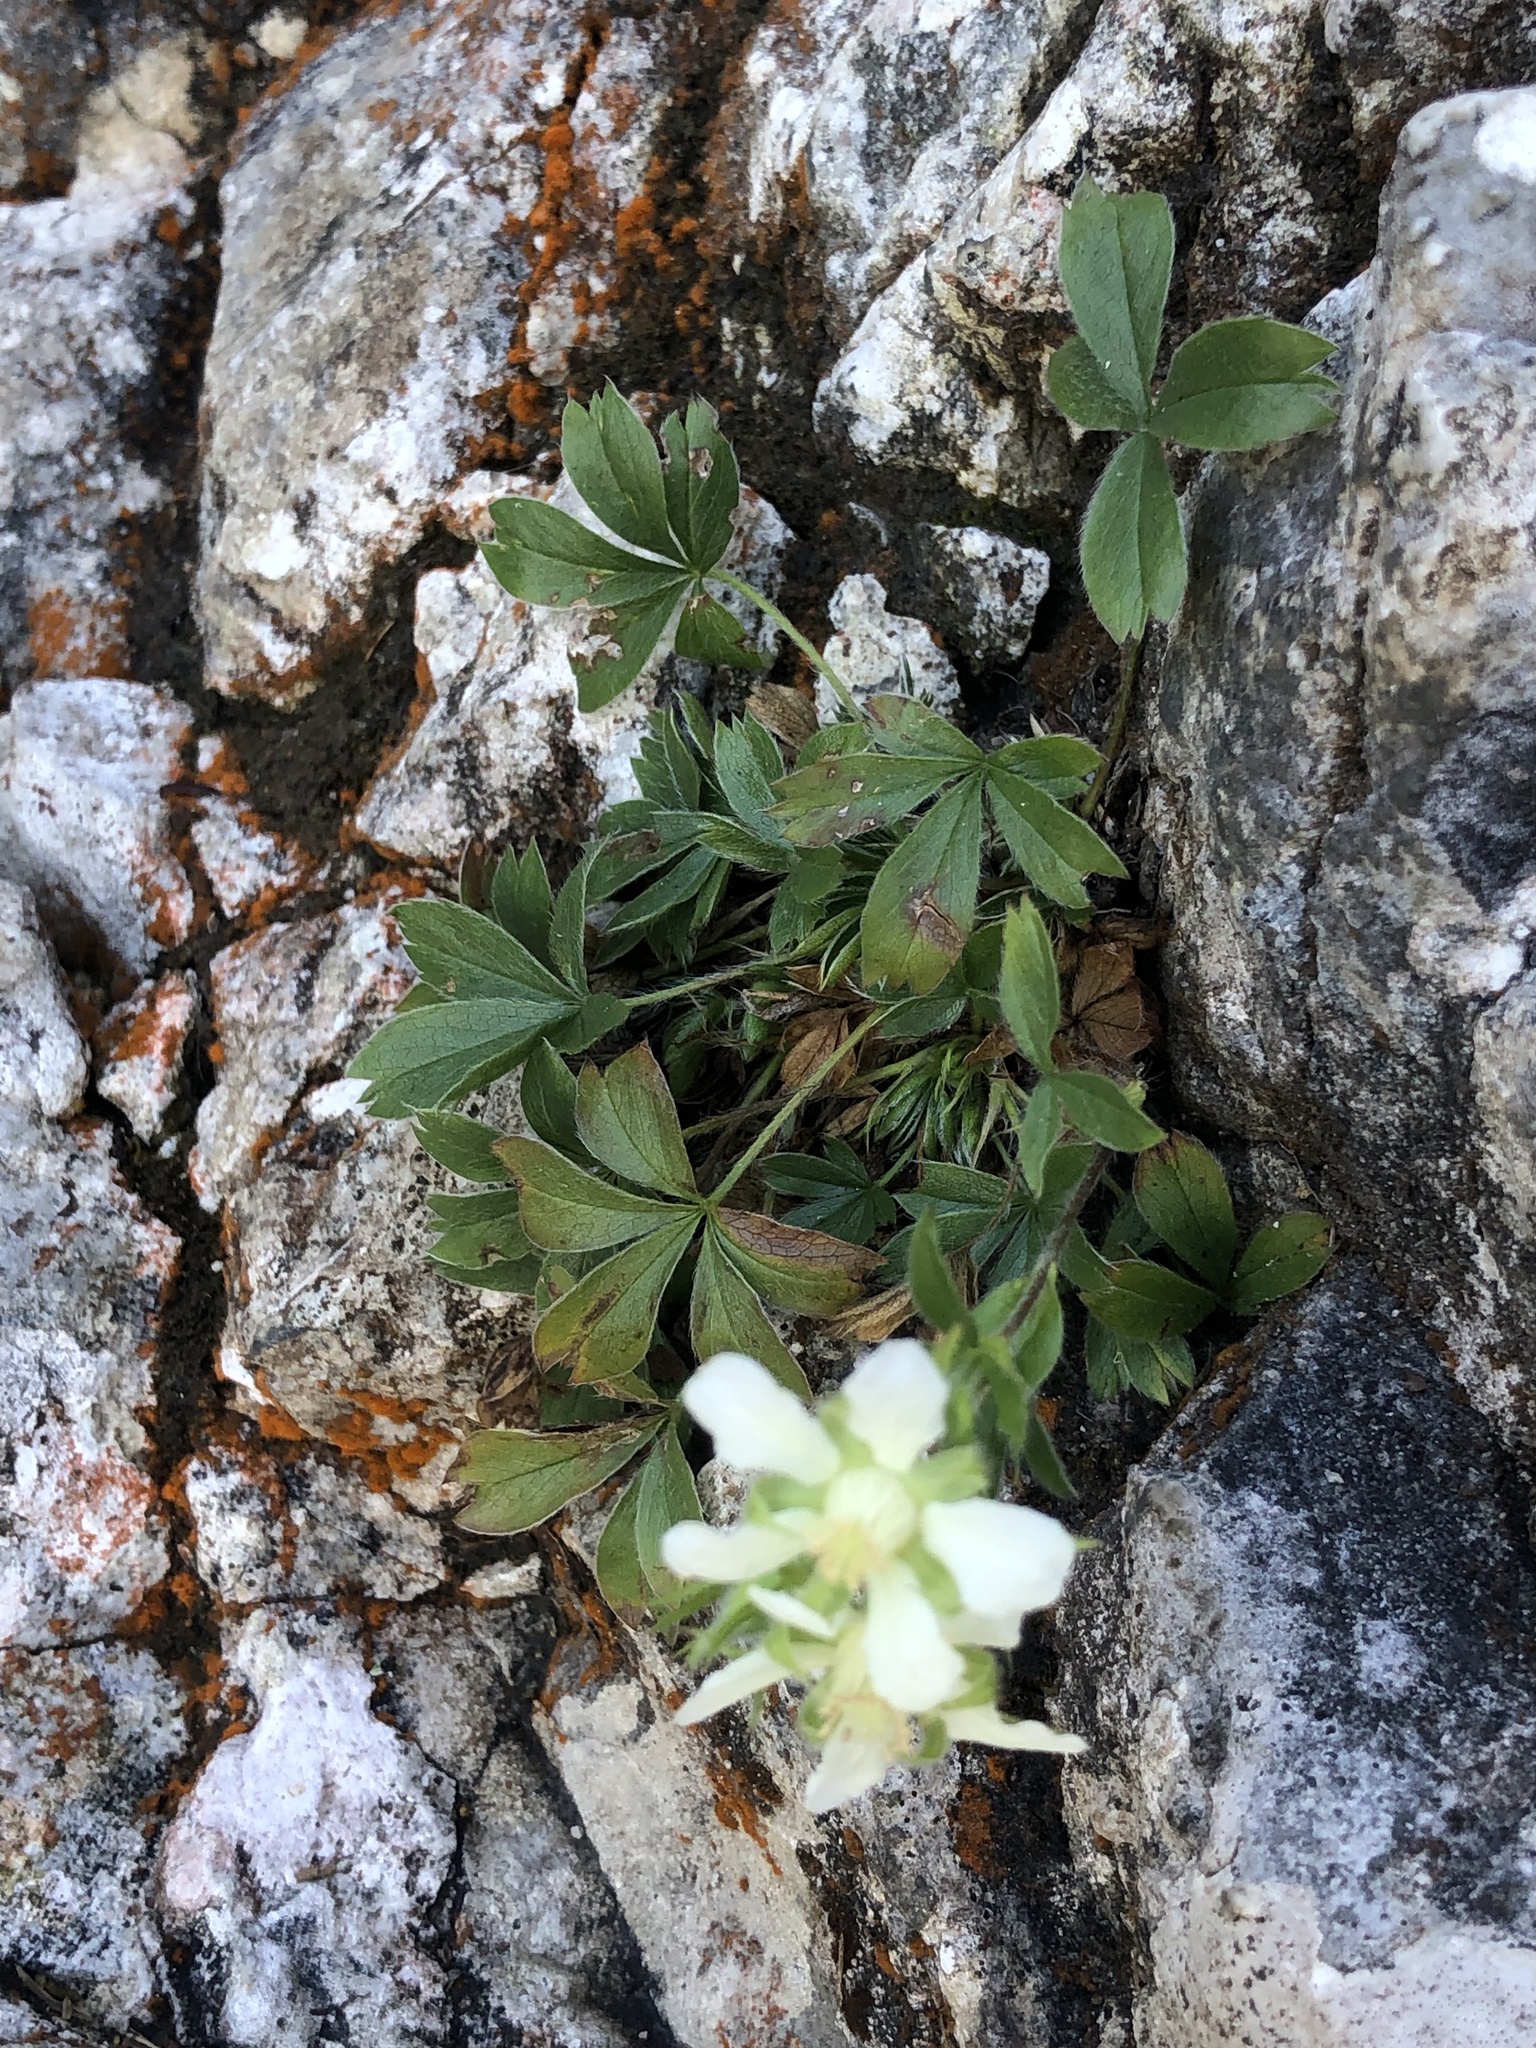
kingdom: Plantae
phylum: Tracheophyta
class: Magnoliopsida
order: Rosales
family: Rosaceae
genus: Potentilla
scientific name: Potentilla caulescens
